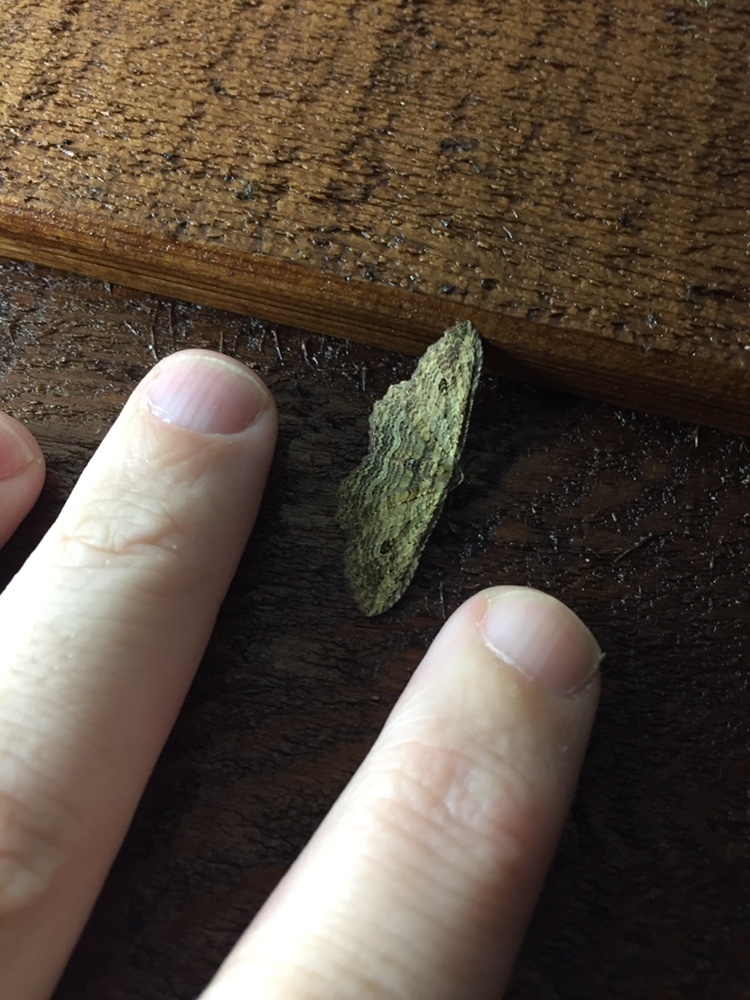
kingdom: Animalia
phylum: Arthropoda
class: Insecta
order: Lepidoptera
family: Geometridae
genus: Austrocidaria
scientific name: Austrocidaria bipartita
